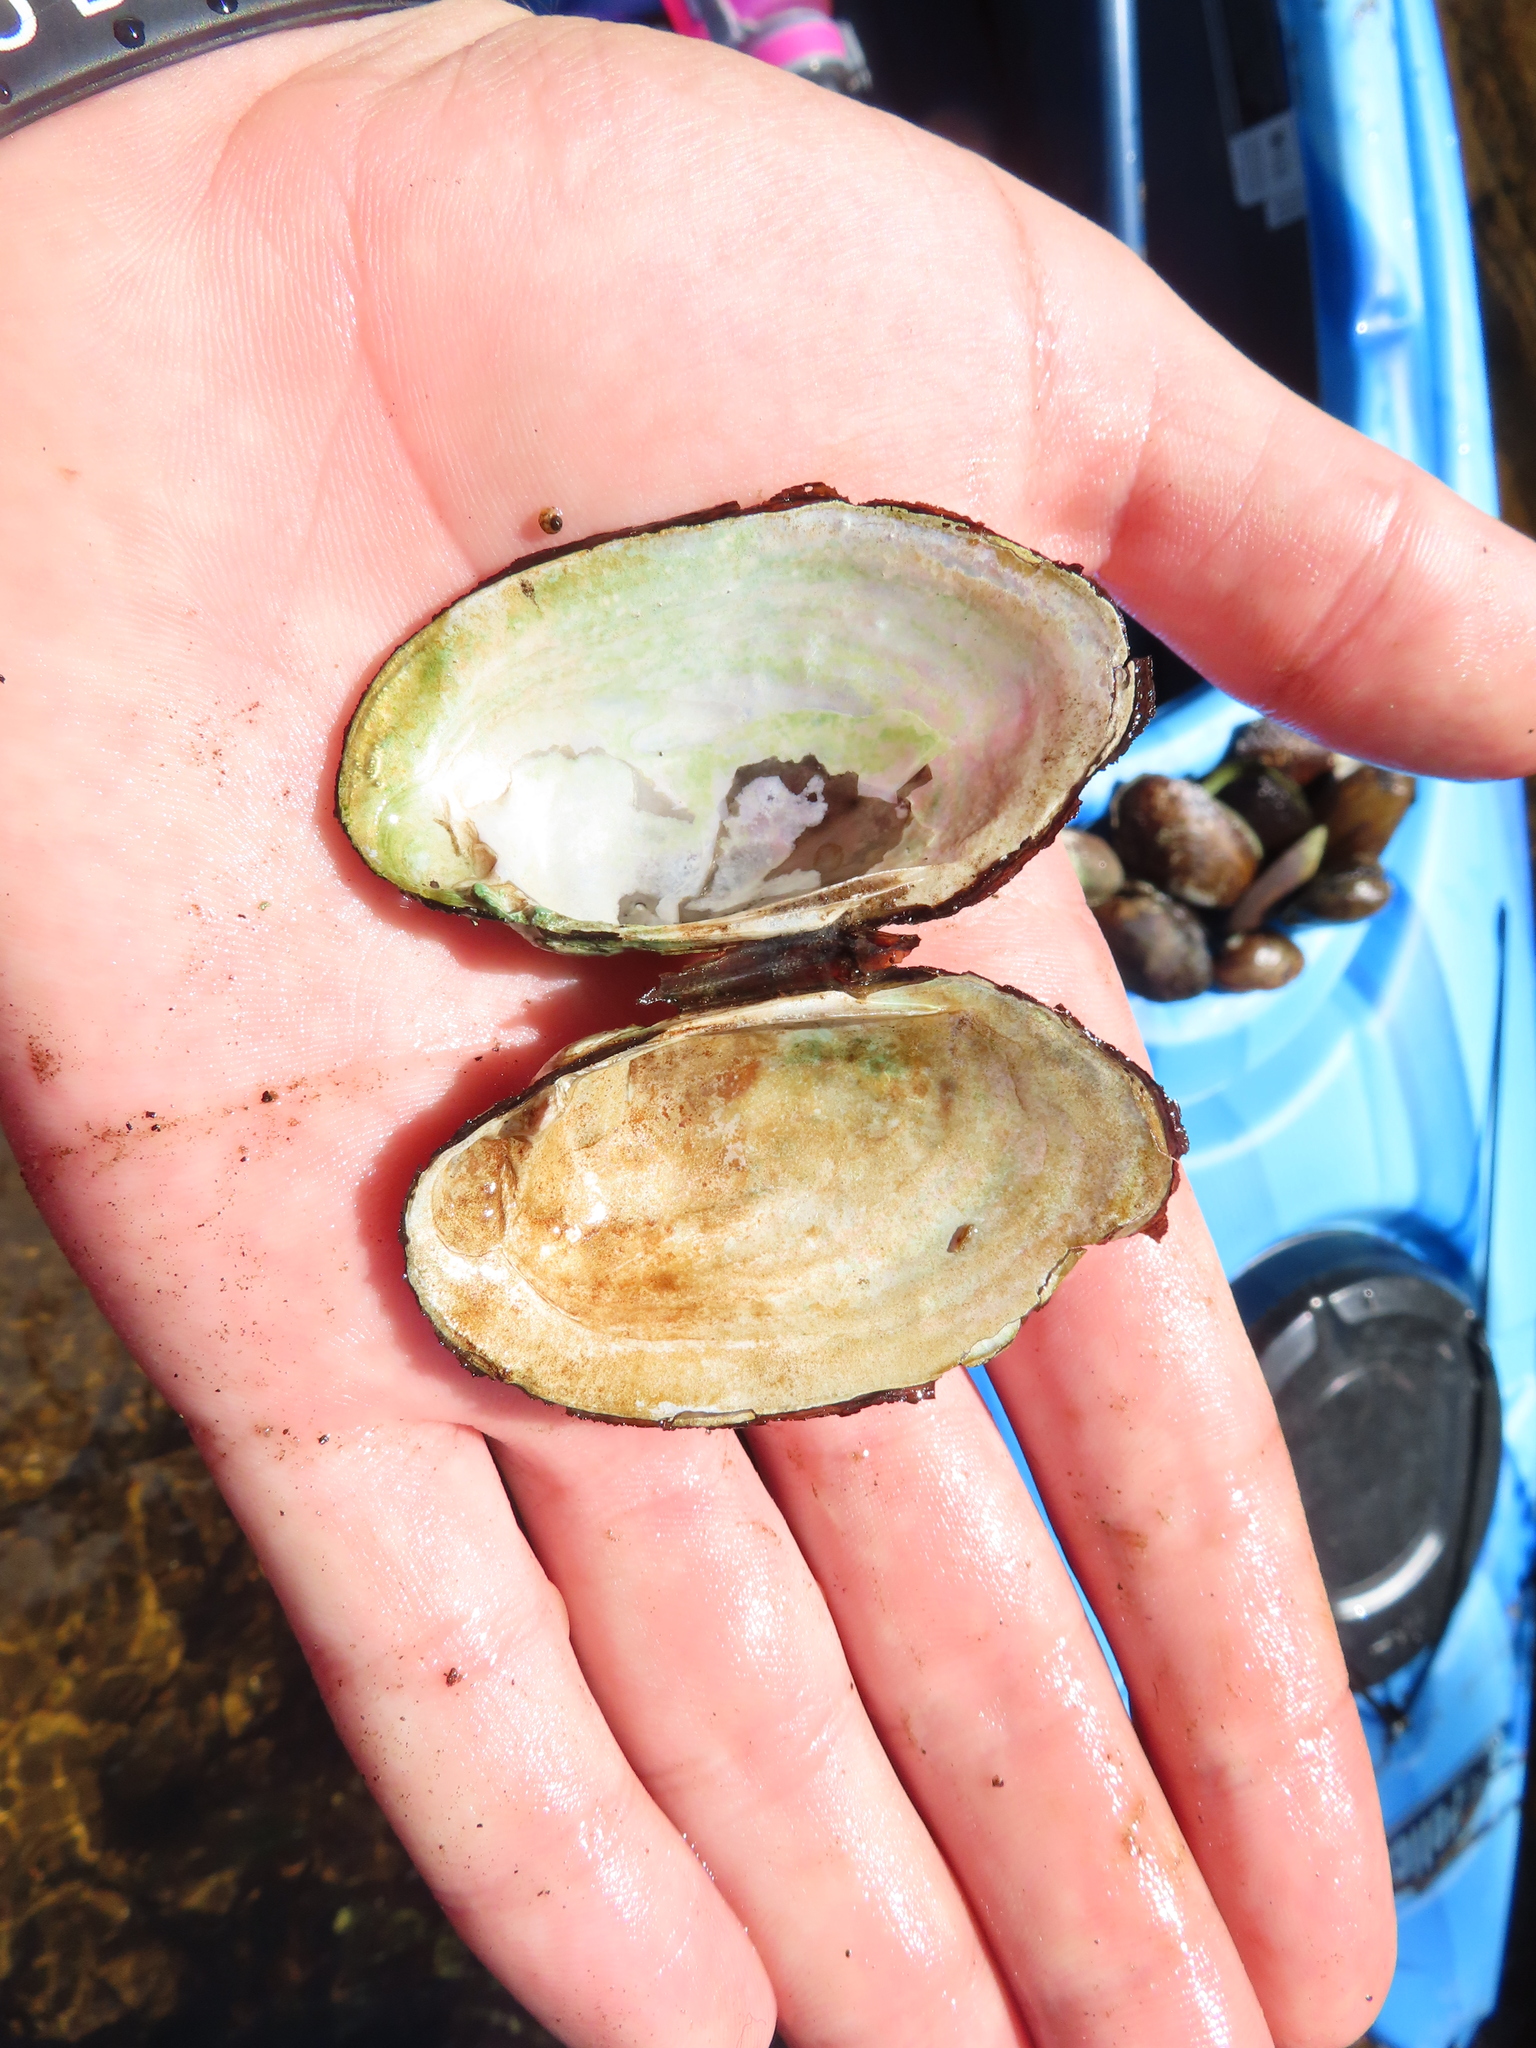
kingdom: Animalia
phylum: Mollusca
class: Bivalvia
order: Unionida
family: Unionidae
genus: Lampsilis
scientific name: Lampsilis siliquoidea
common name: Fatmucket
